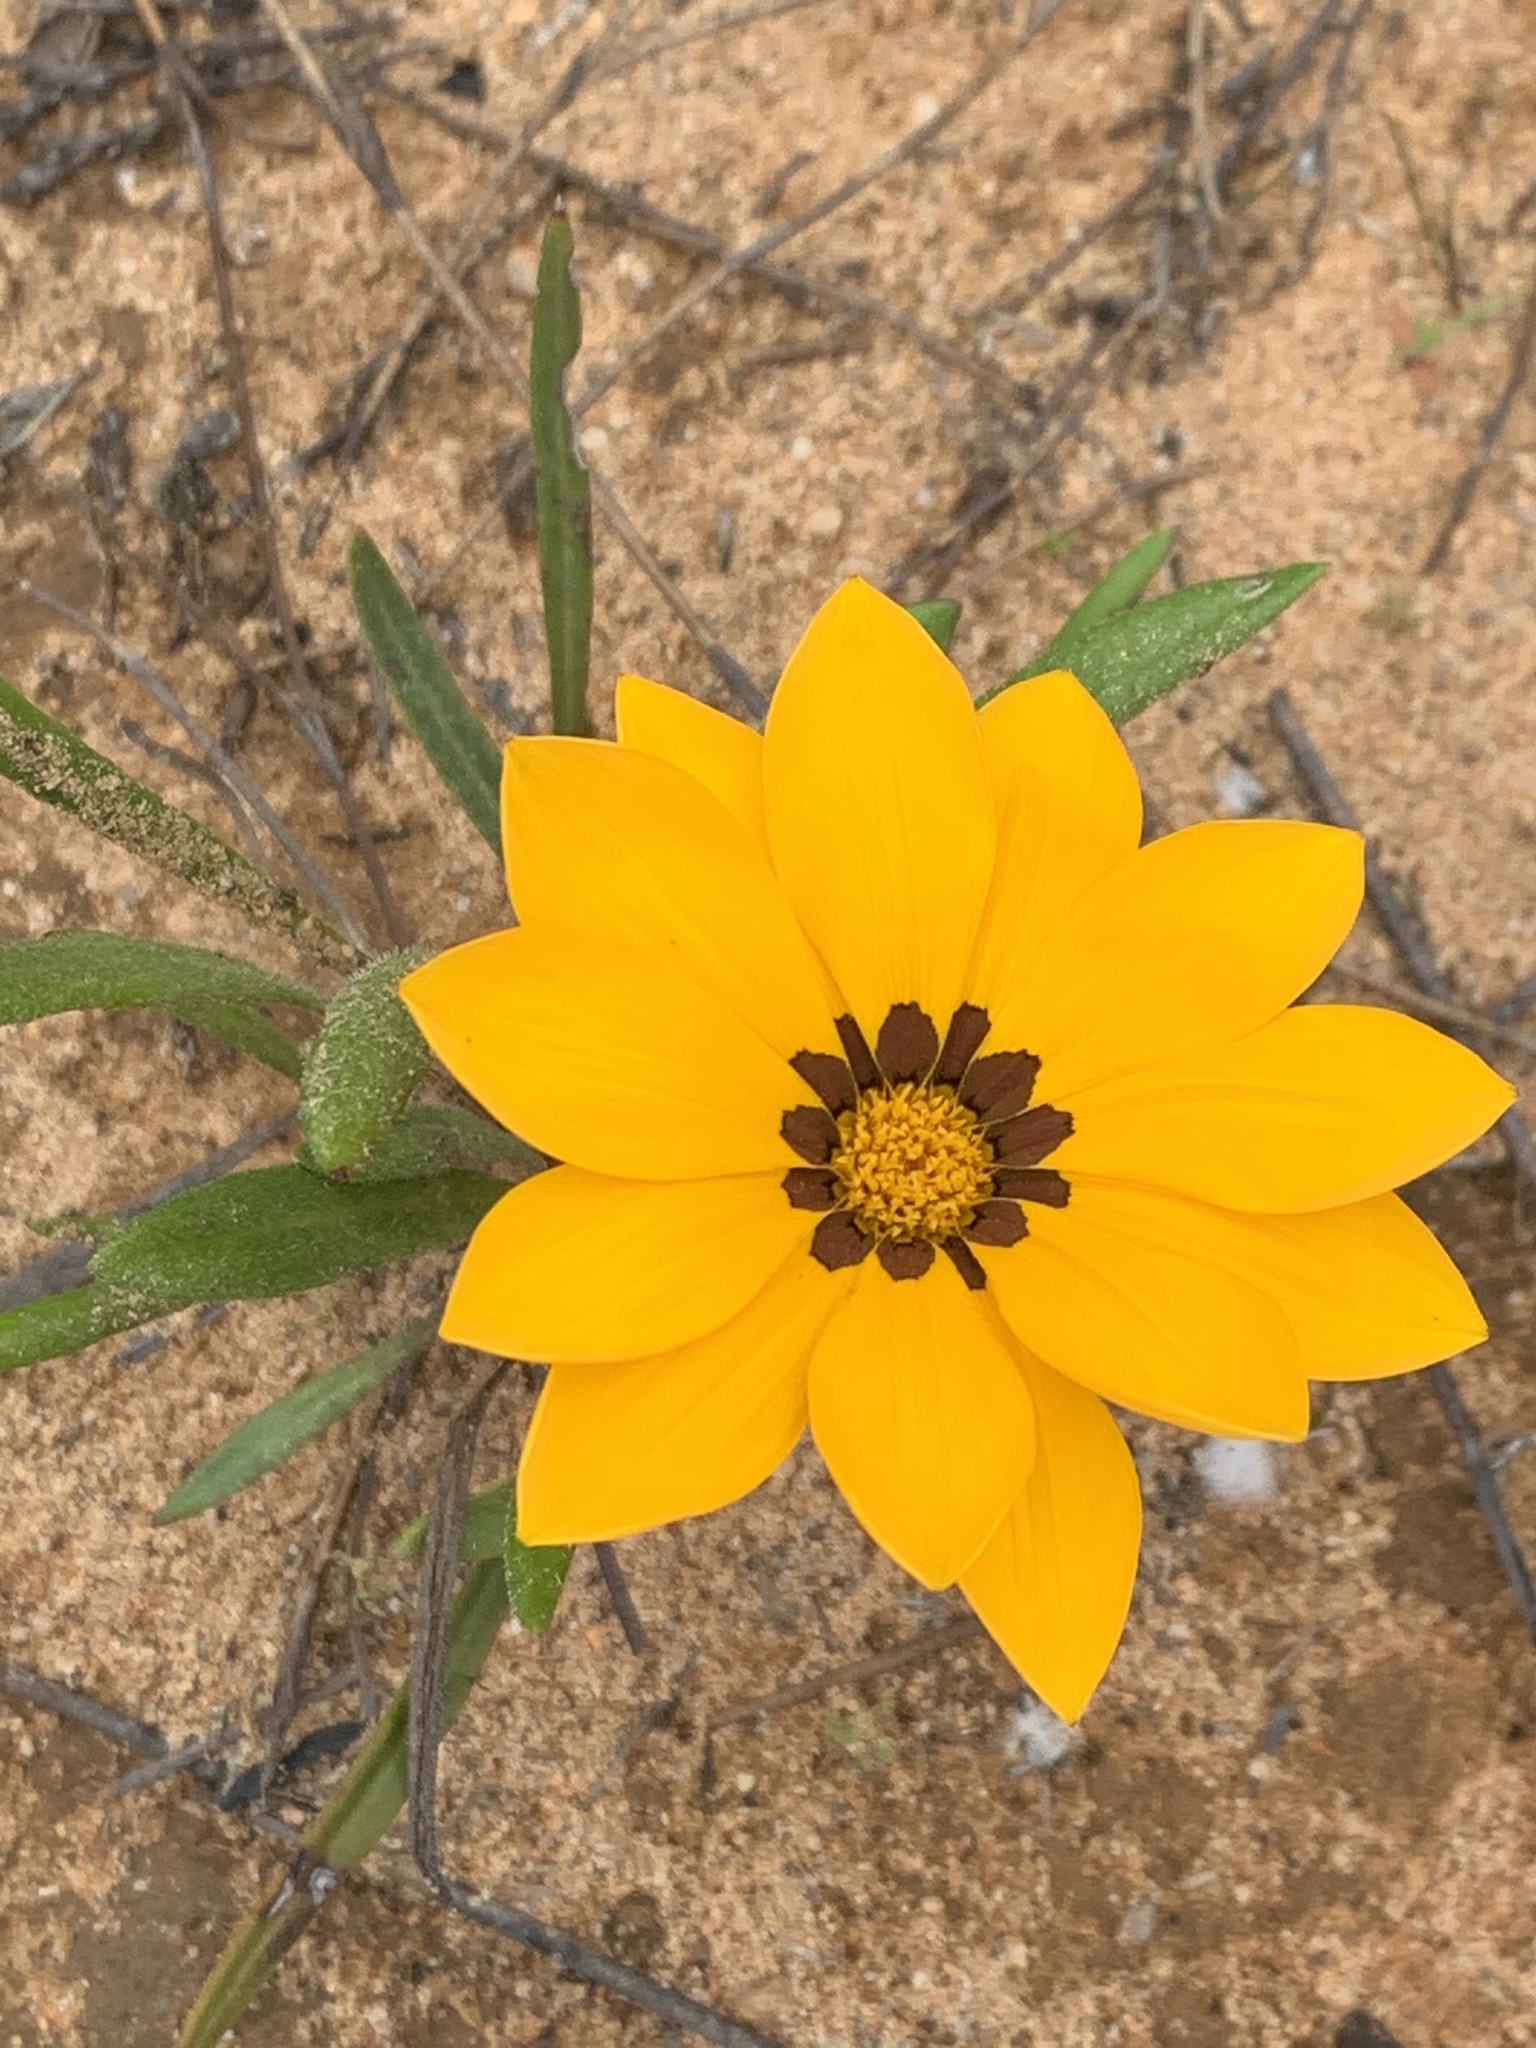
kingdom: Plantae
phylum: Tracheophyta
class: Magnoliopsida
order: Asterales
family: Asteraceae
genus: Gazania
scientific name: Gazania serrata
